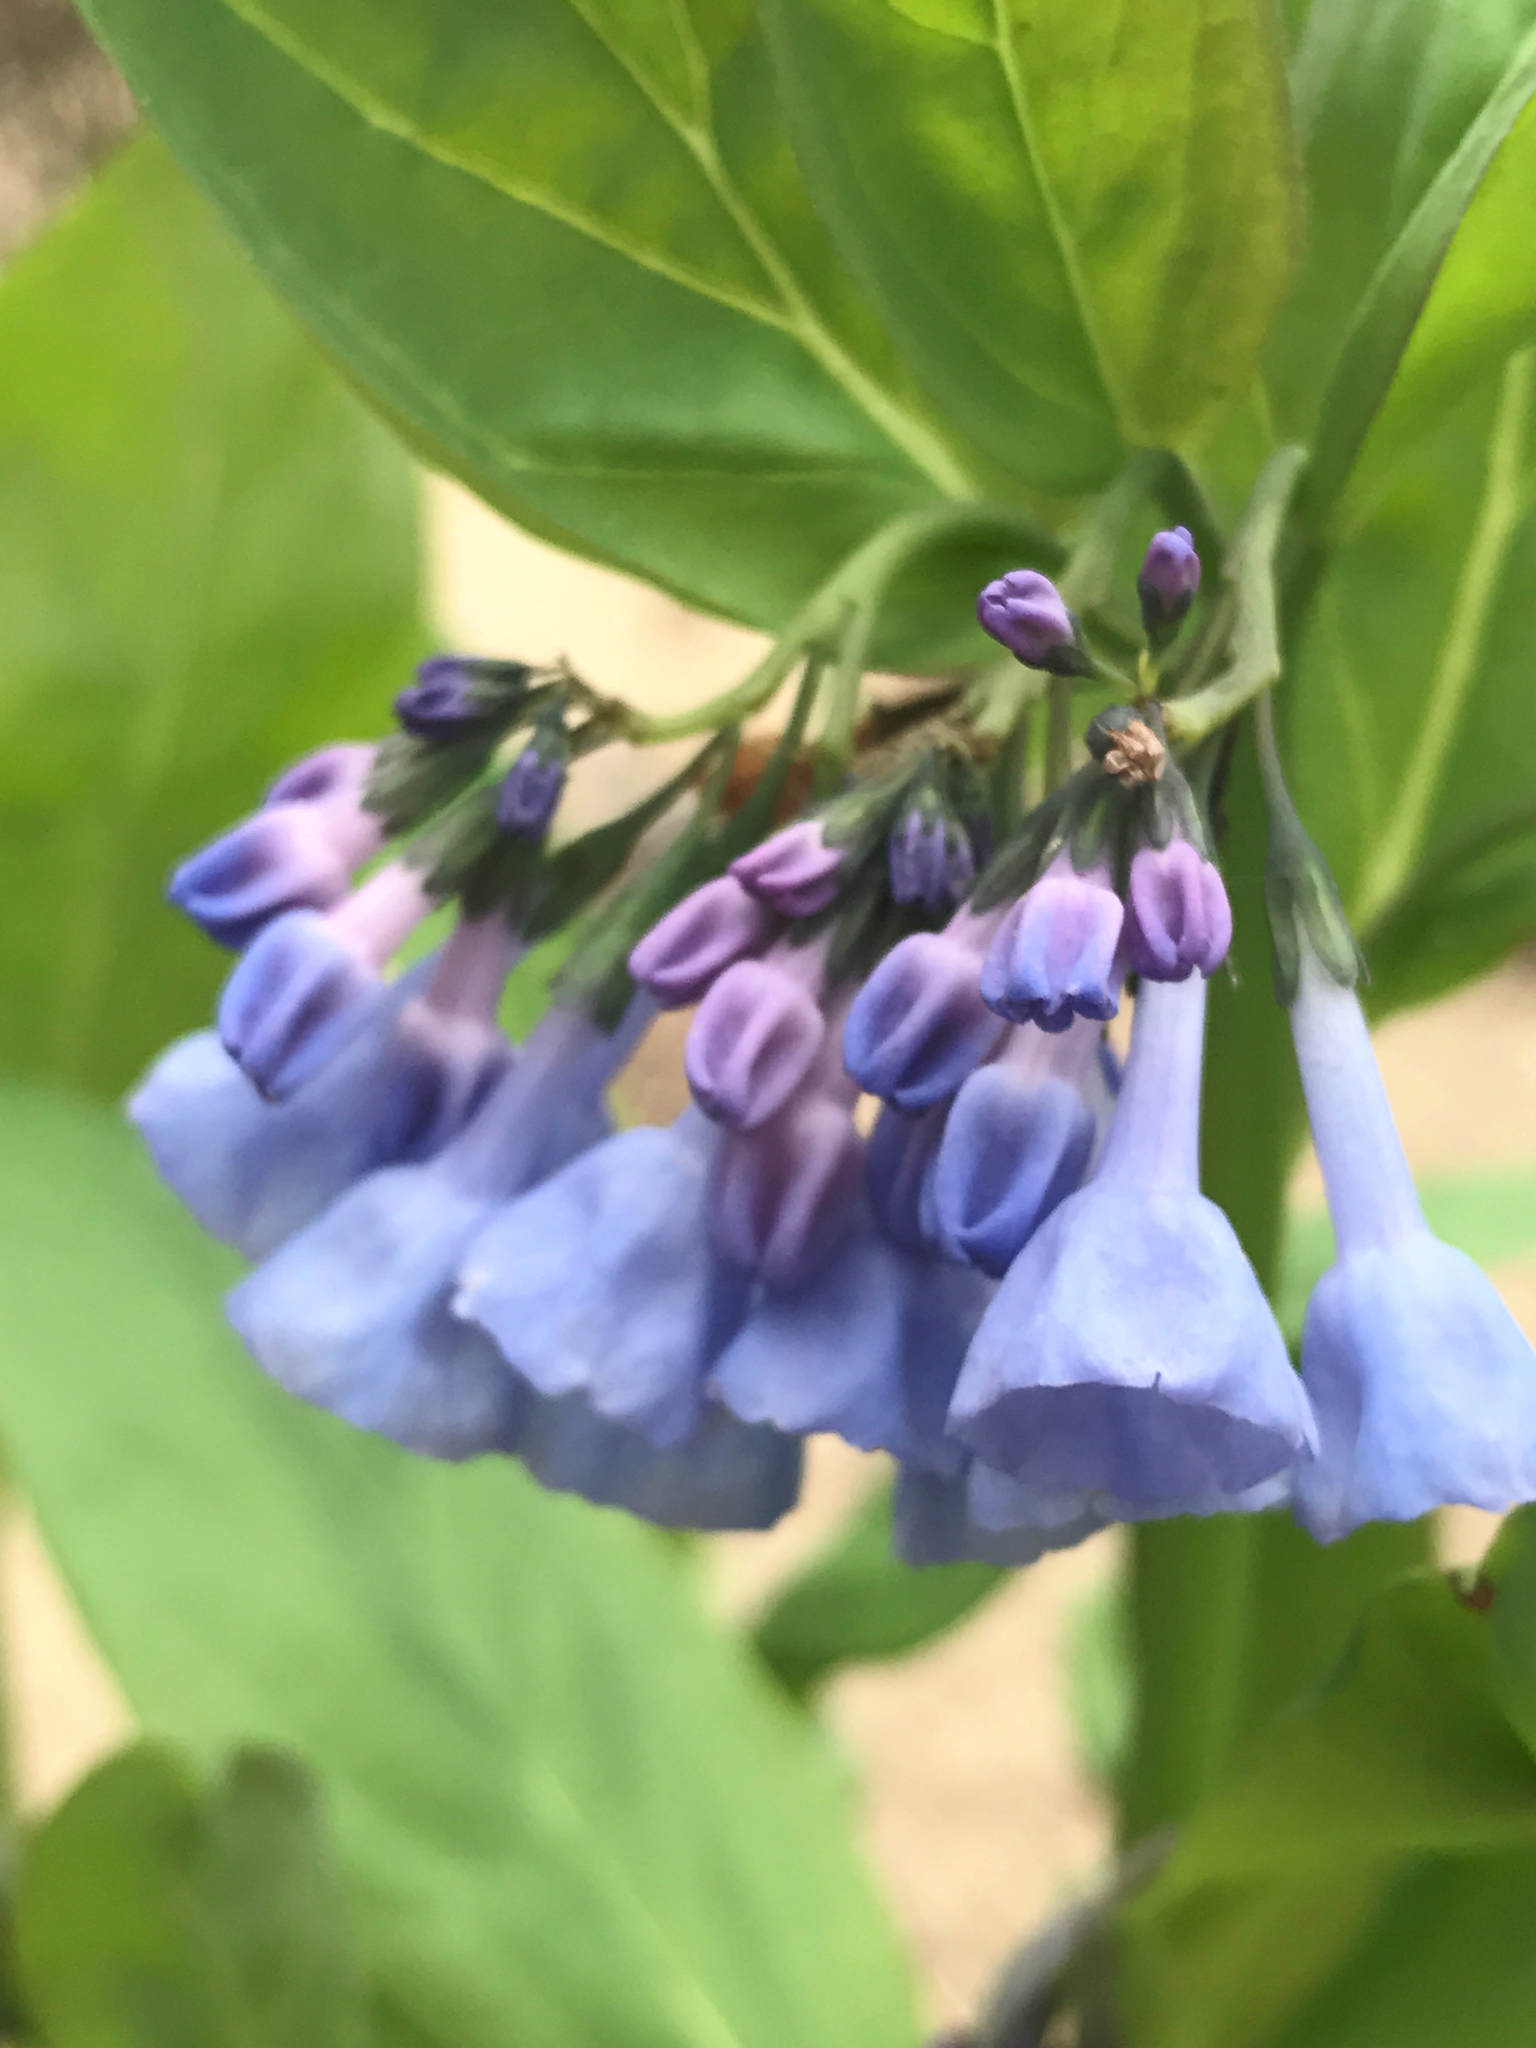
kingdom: Plantae
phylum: Tracheophyta
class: Magnoliopsida
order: Boraginales
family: Boraginaceae
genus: Mertensia
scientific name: Mertensia virginica
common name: Virginia bluebells
